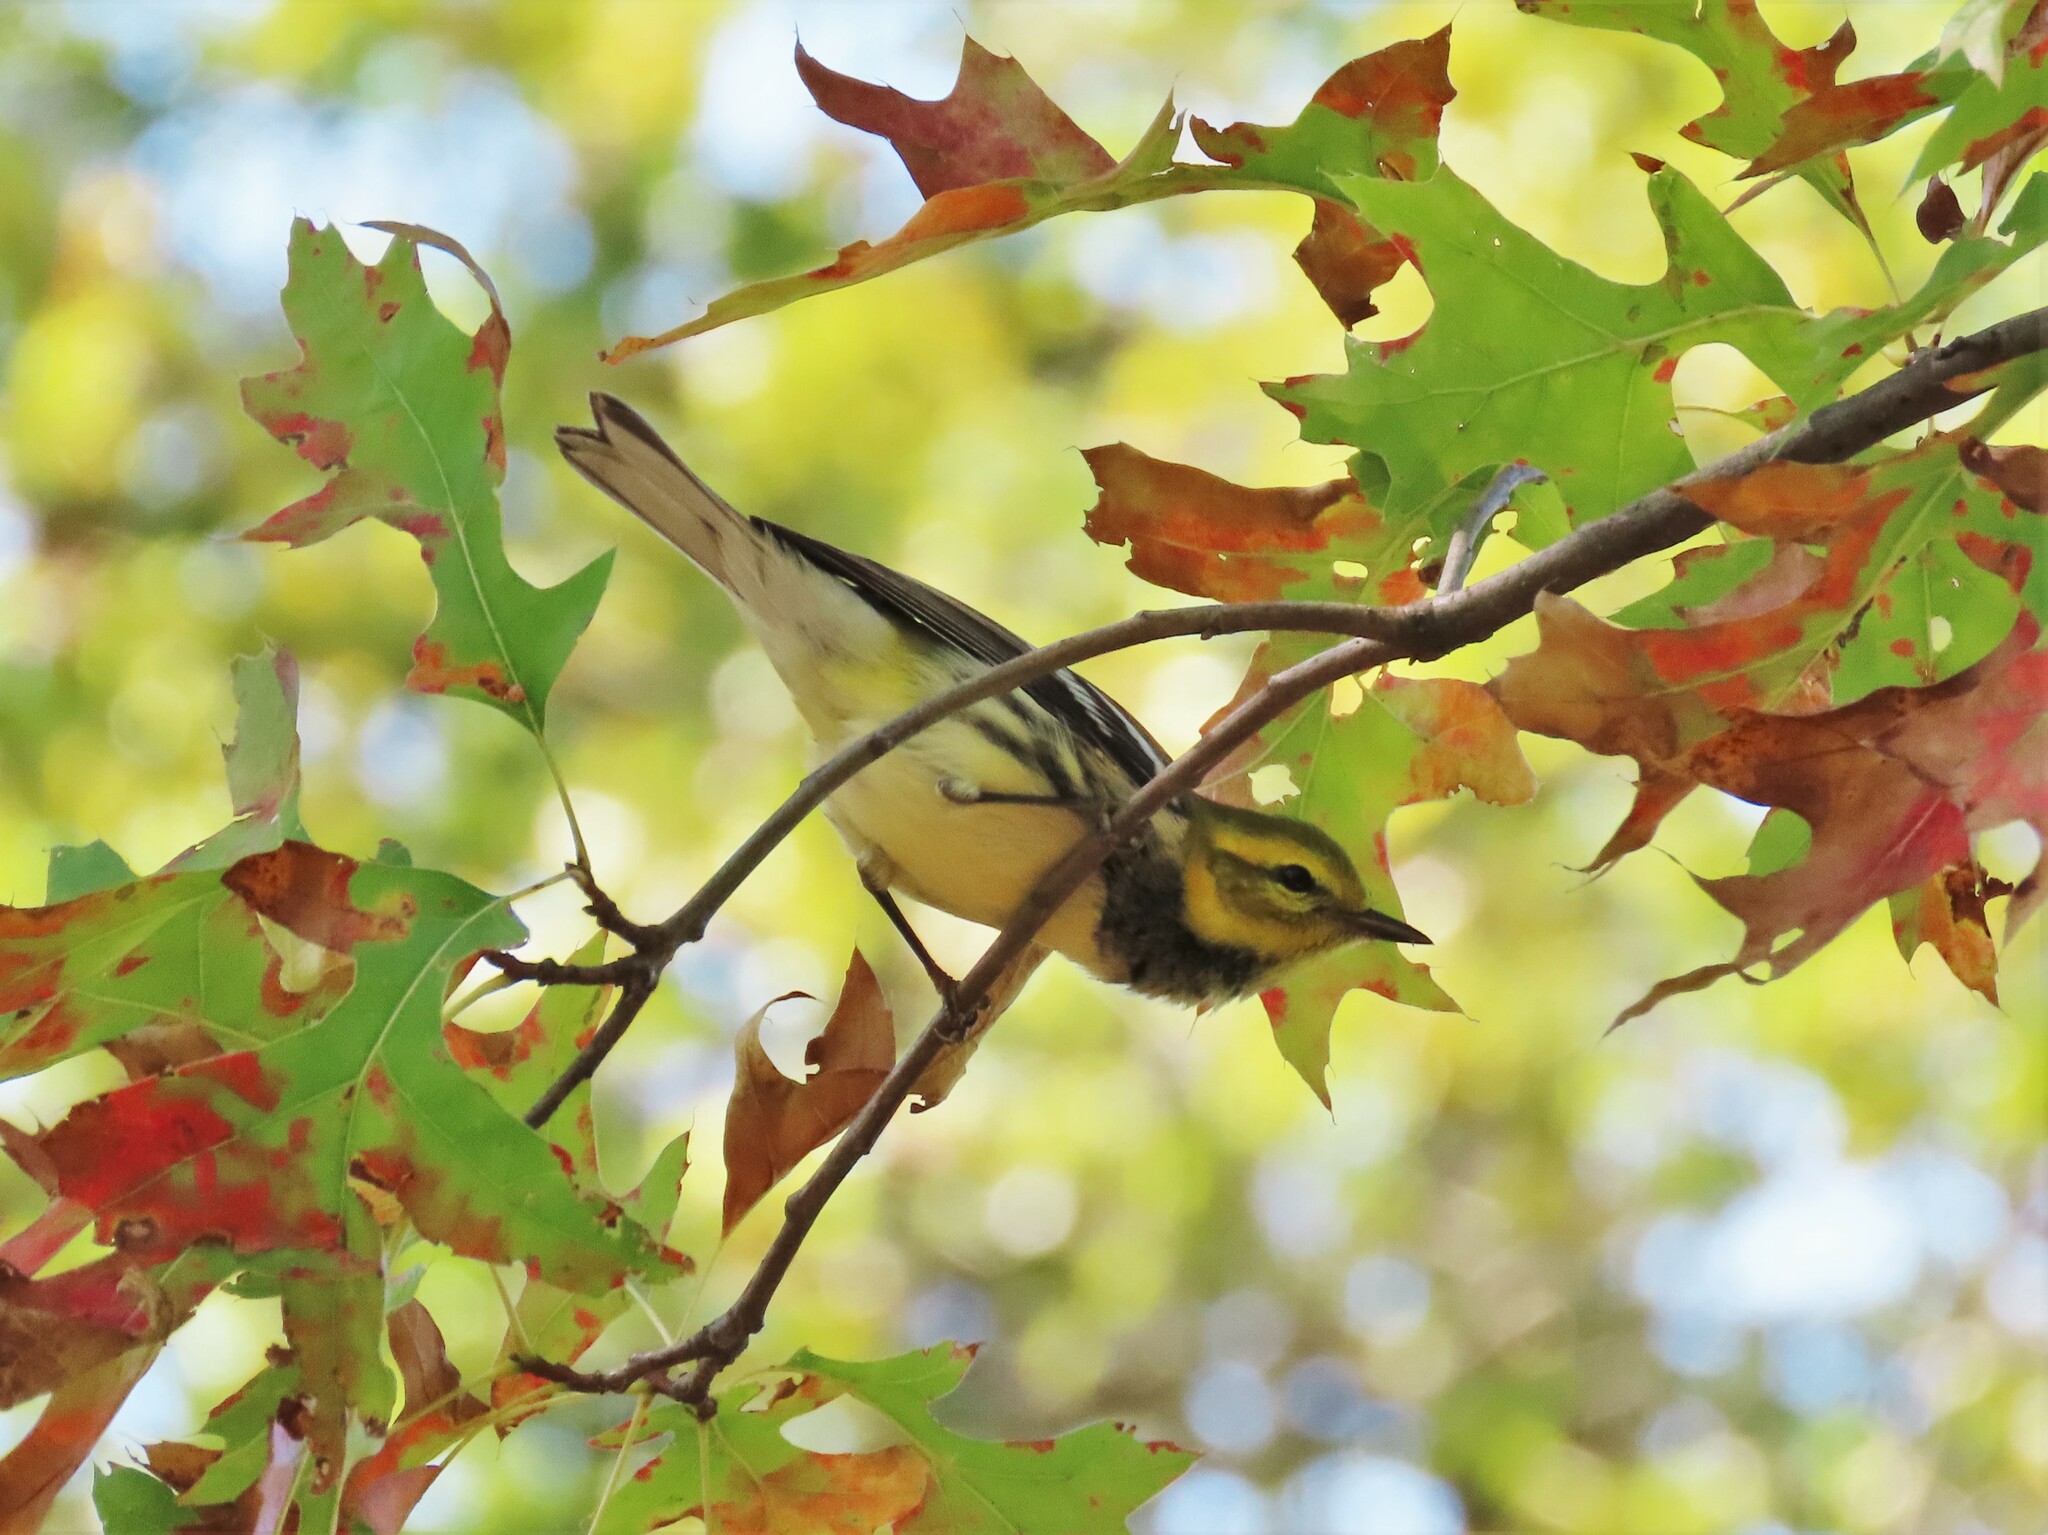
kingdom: Animalia
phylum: Chordata
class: Aves
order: Passeriformes
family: Parulidae
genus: Setophaga
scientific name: Setophaga virens
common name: Black-throated green warbler
